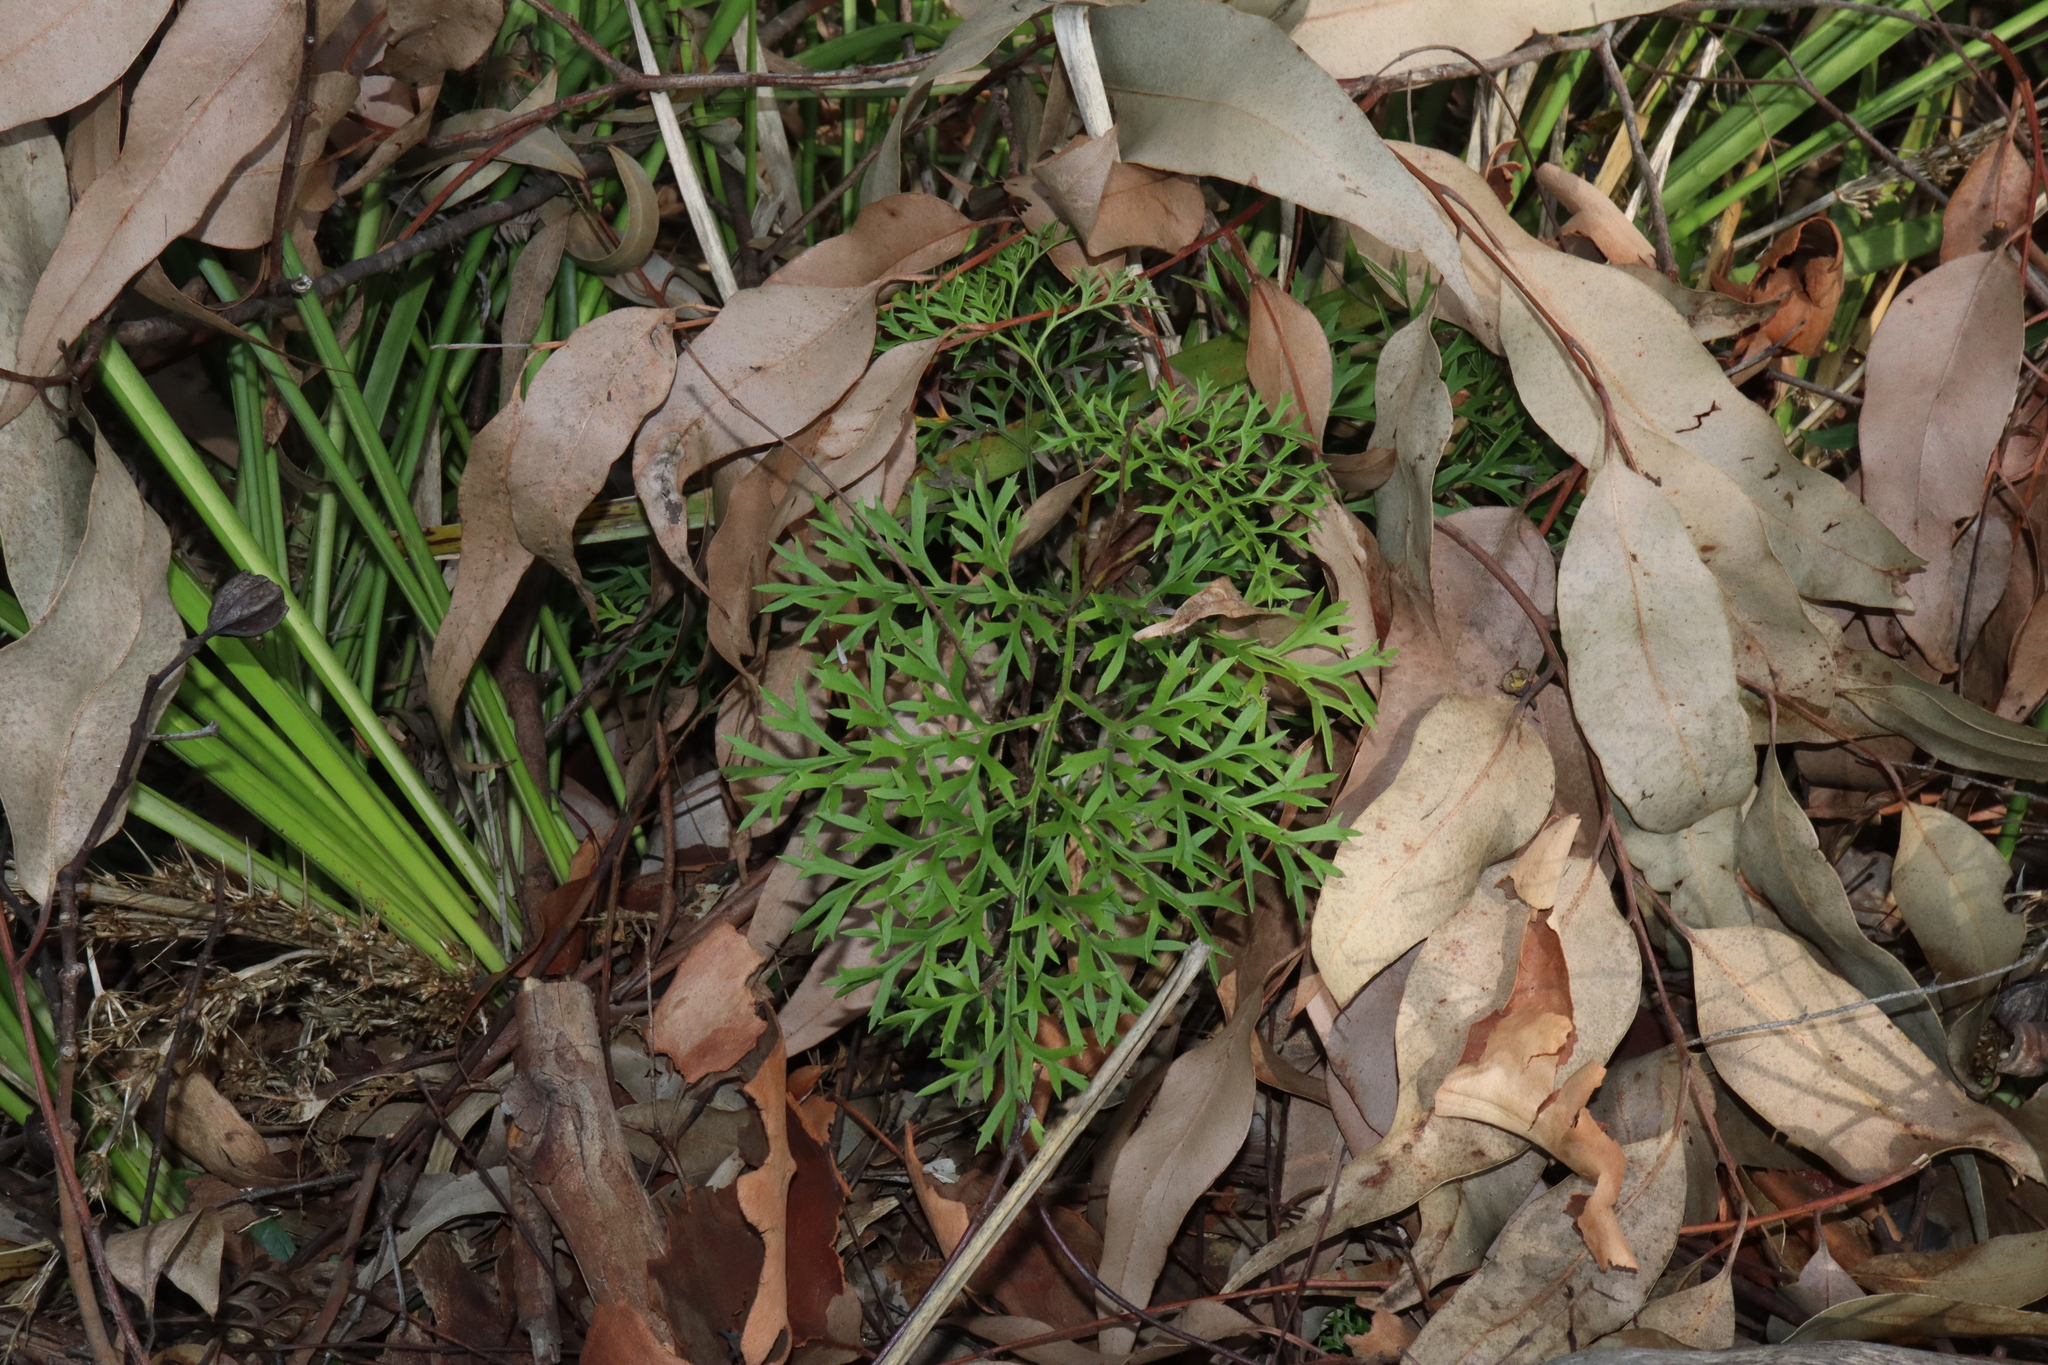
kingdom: Plantae
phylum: Tracheophyta
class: Magnoliopsida
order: Proteales
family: Proteaceae
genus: Lomatia
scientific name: Lomatia silaifolia
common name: Crinklebush
